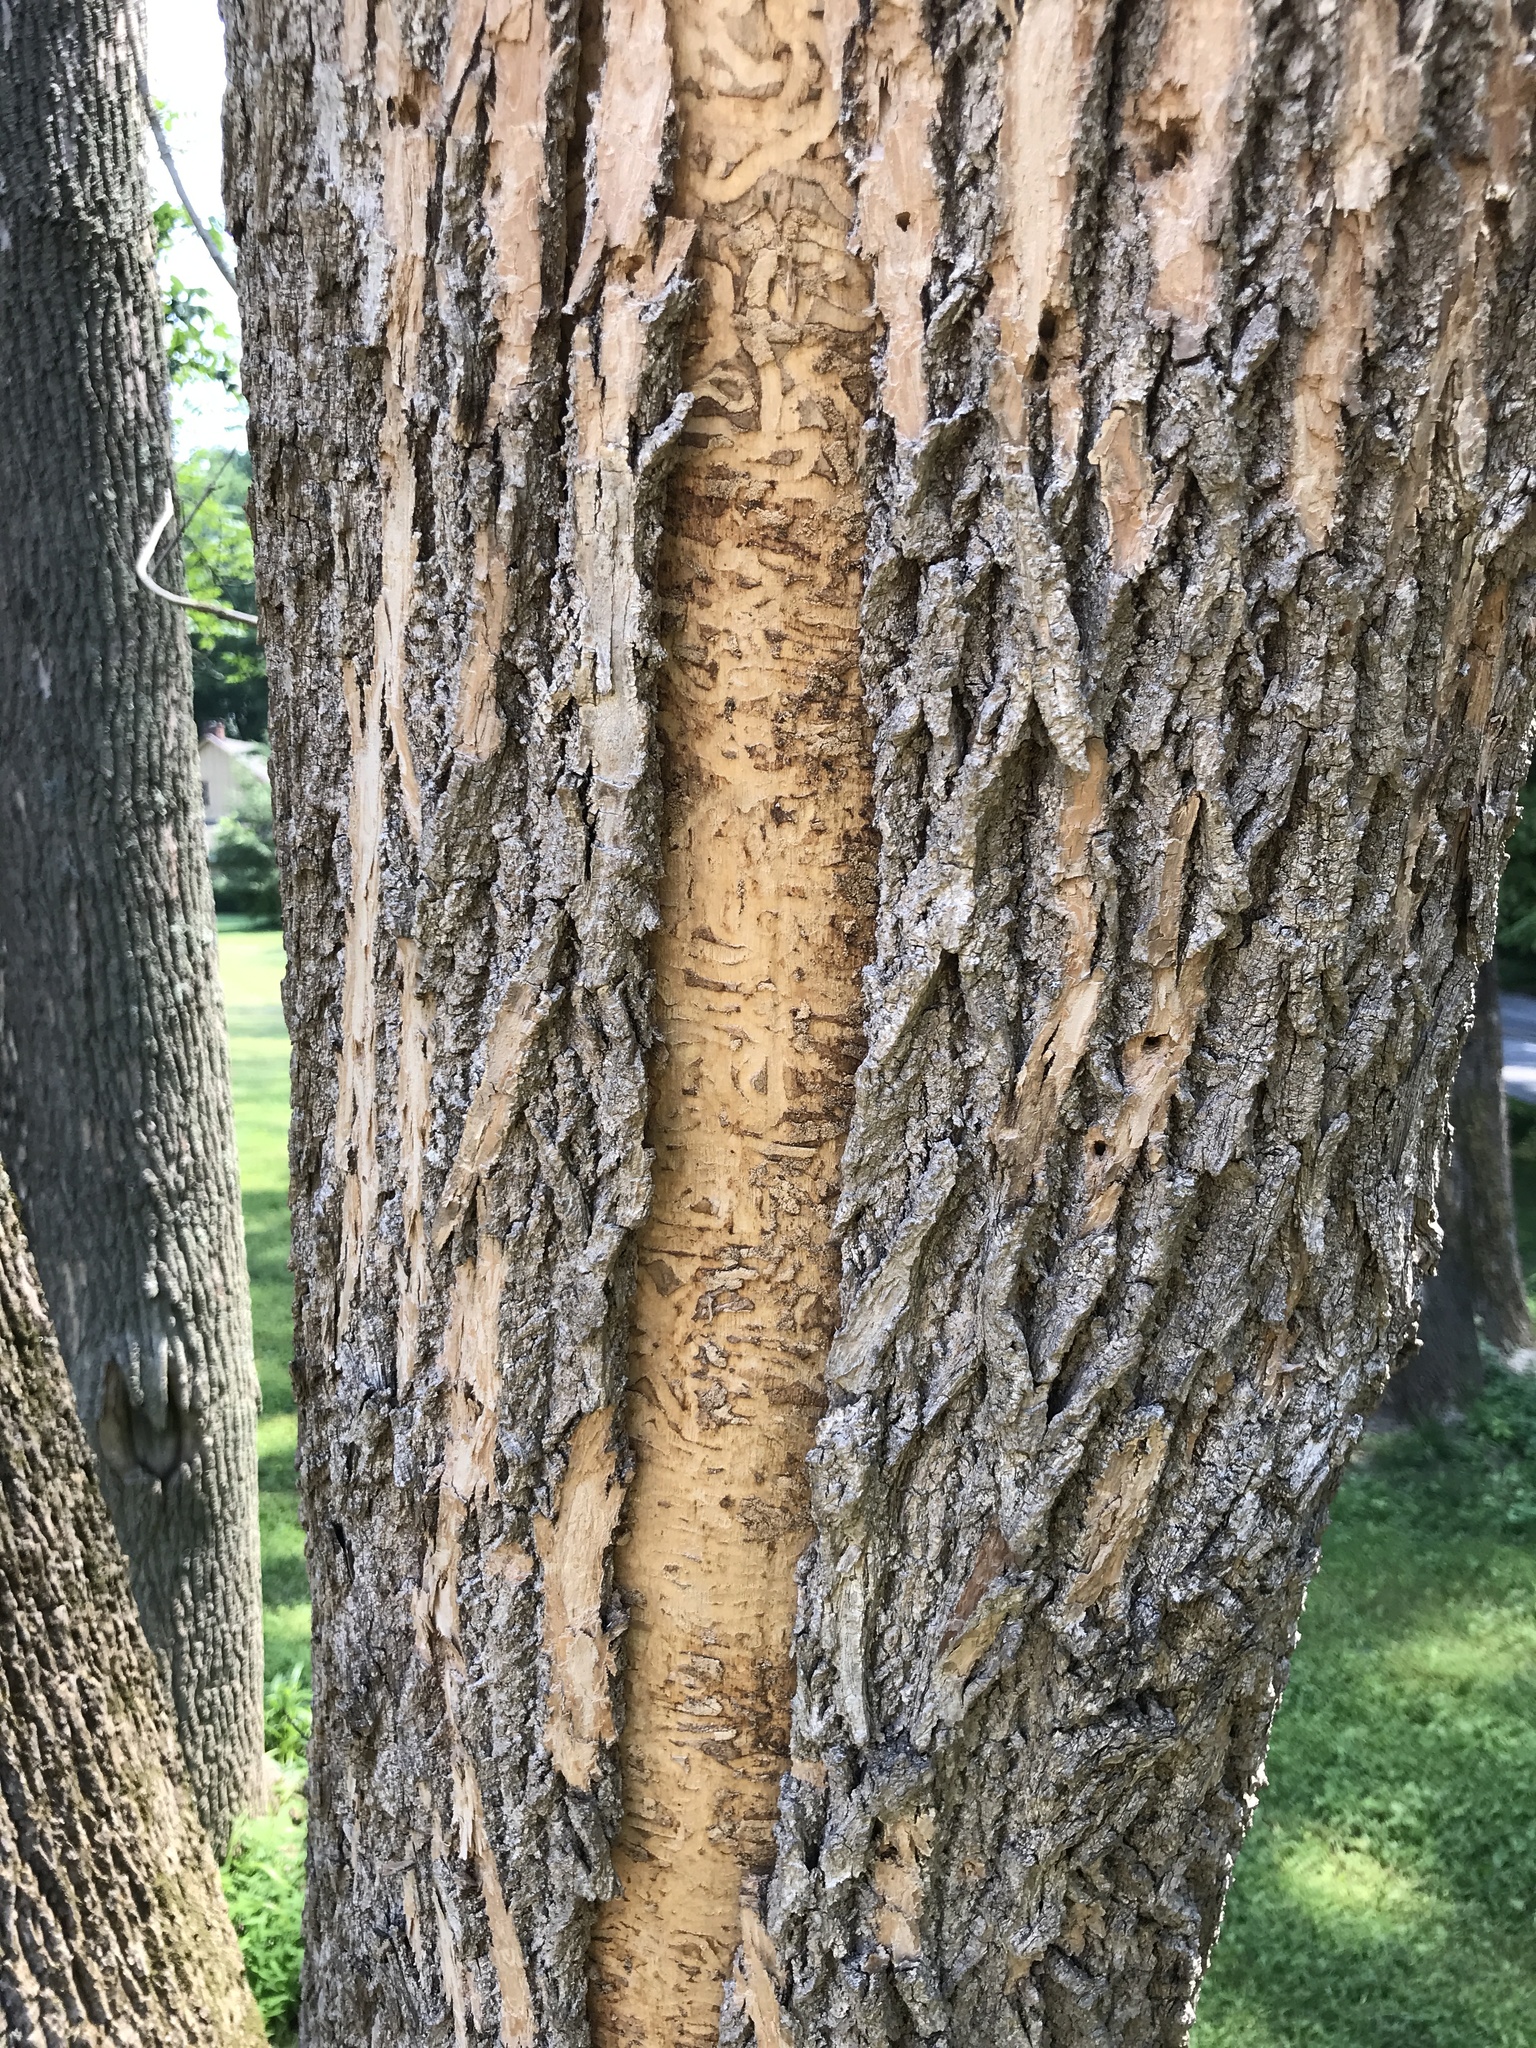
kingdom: Animalia
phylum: Arthropoda
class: Insecta
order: Coleoptera
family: Buprestidae
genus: Agrilus
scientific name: Agrilus planipennis
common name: Emerald ash borer
